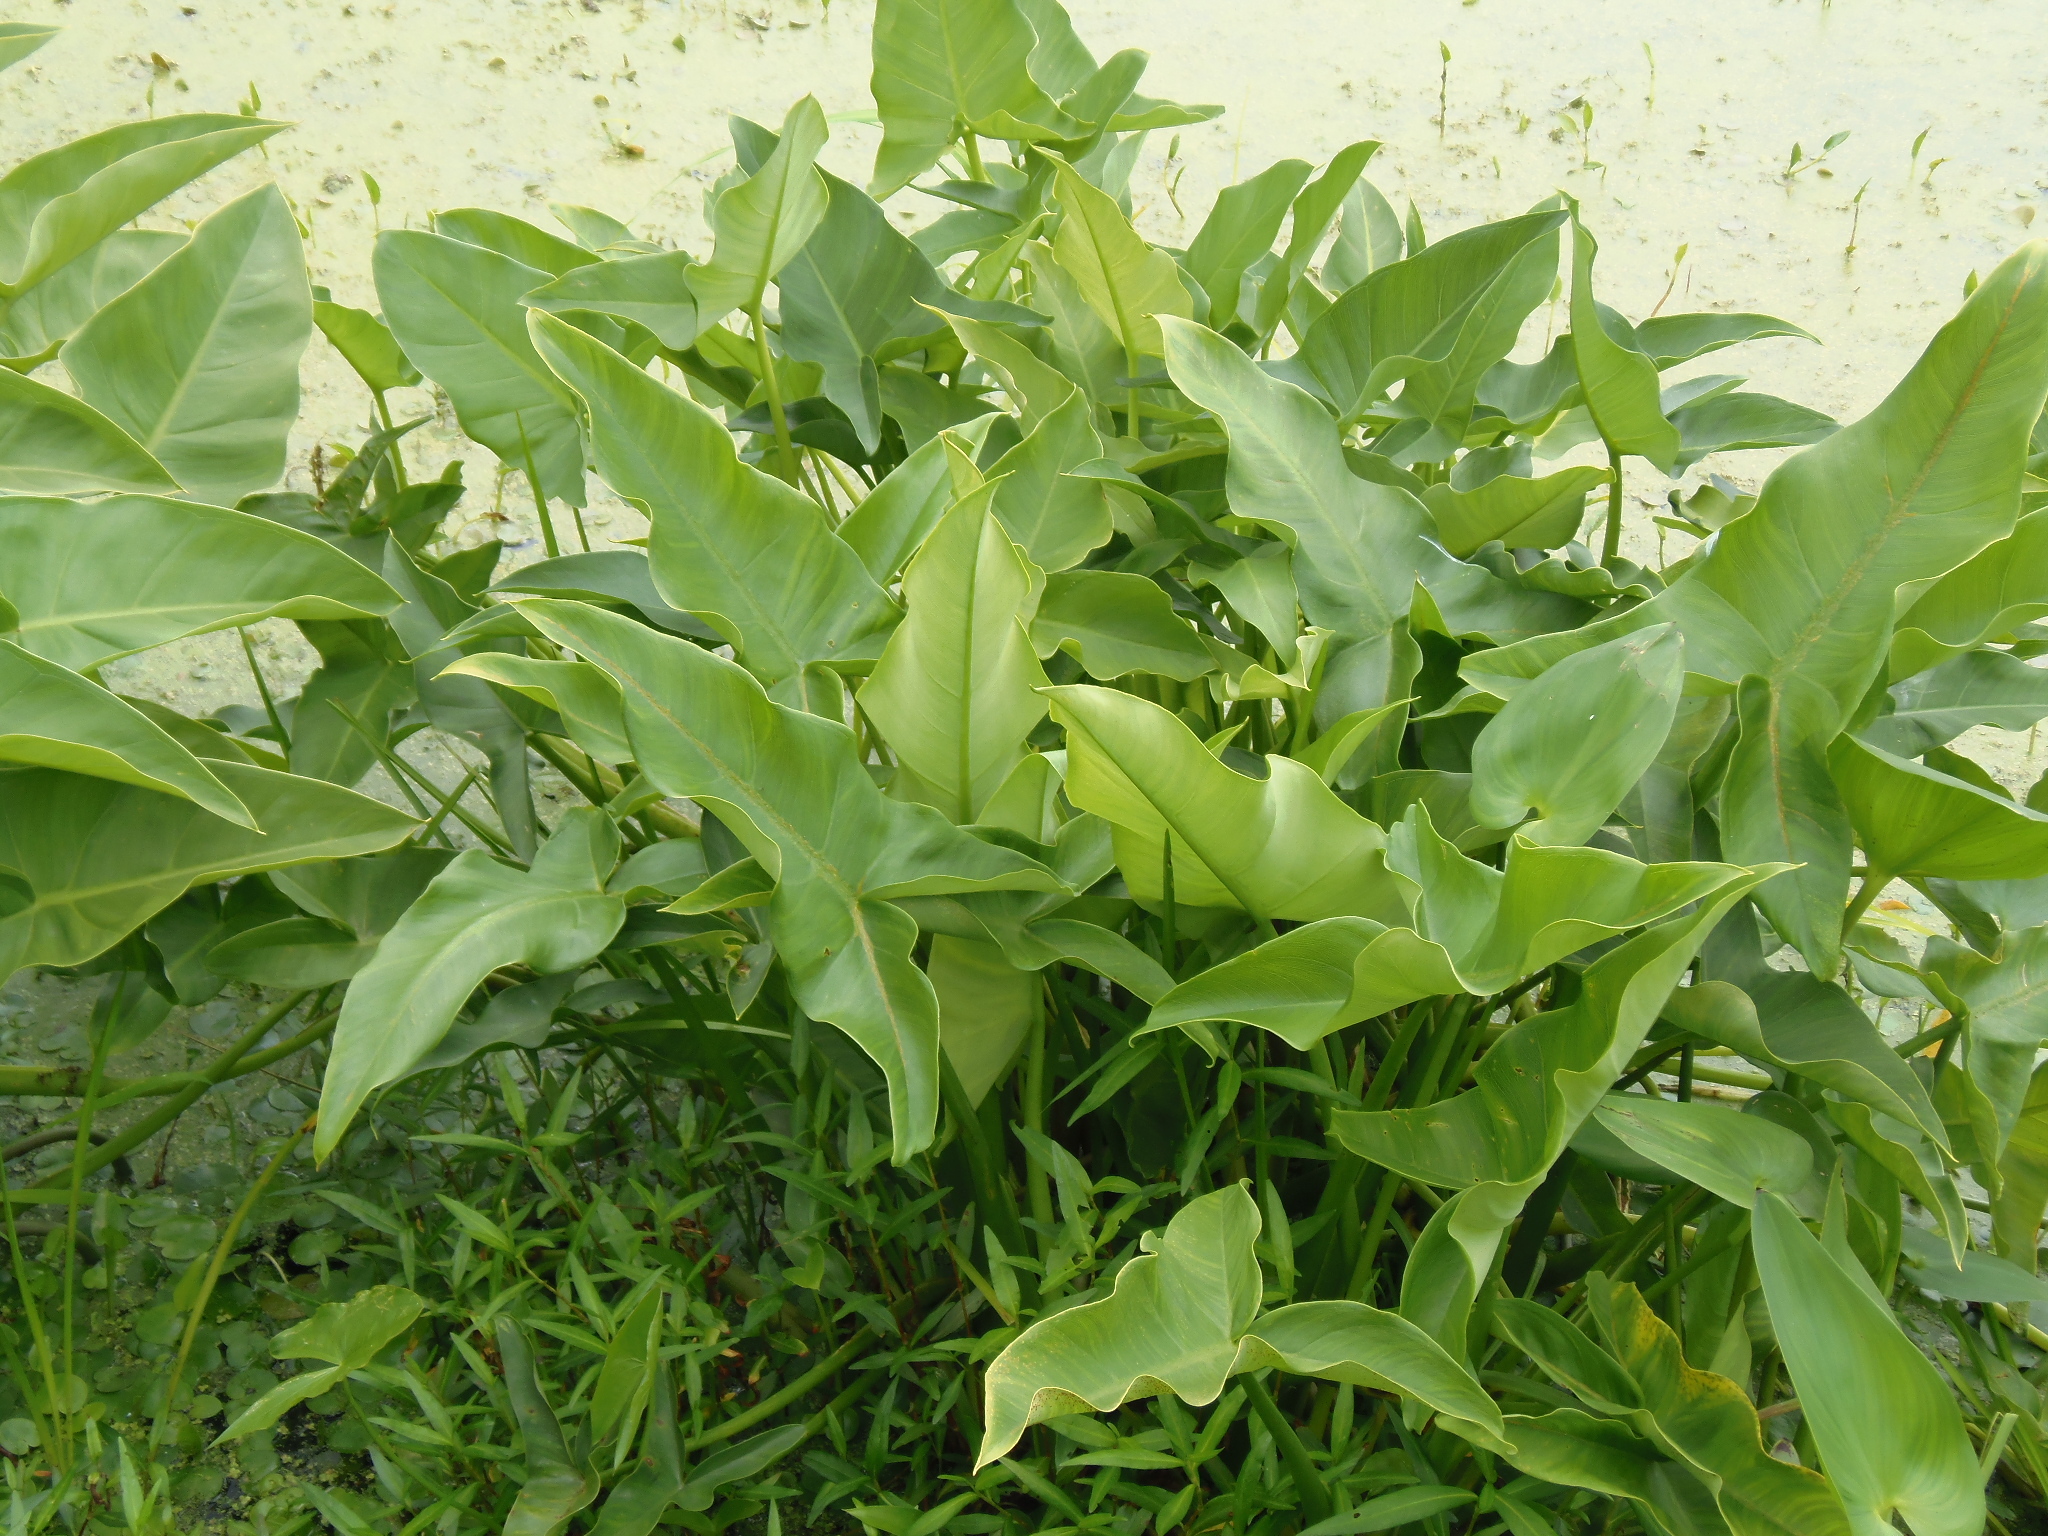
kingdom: Plantae
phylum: Tracheophyta
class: Liliopsida
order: Alismatales
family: Araceae
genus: Peltandra
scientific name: Peltandra virginica
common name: Arrow arum
